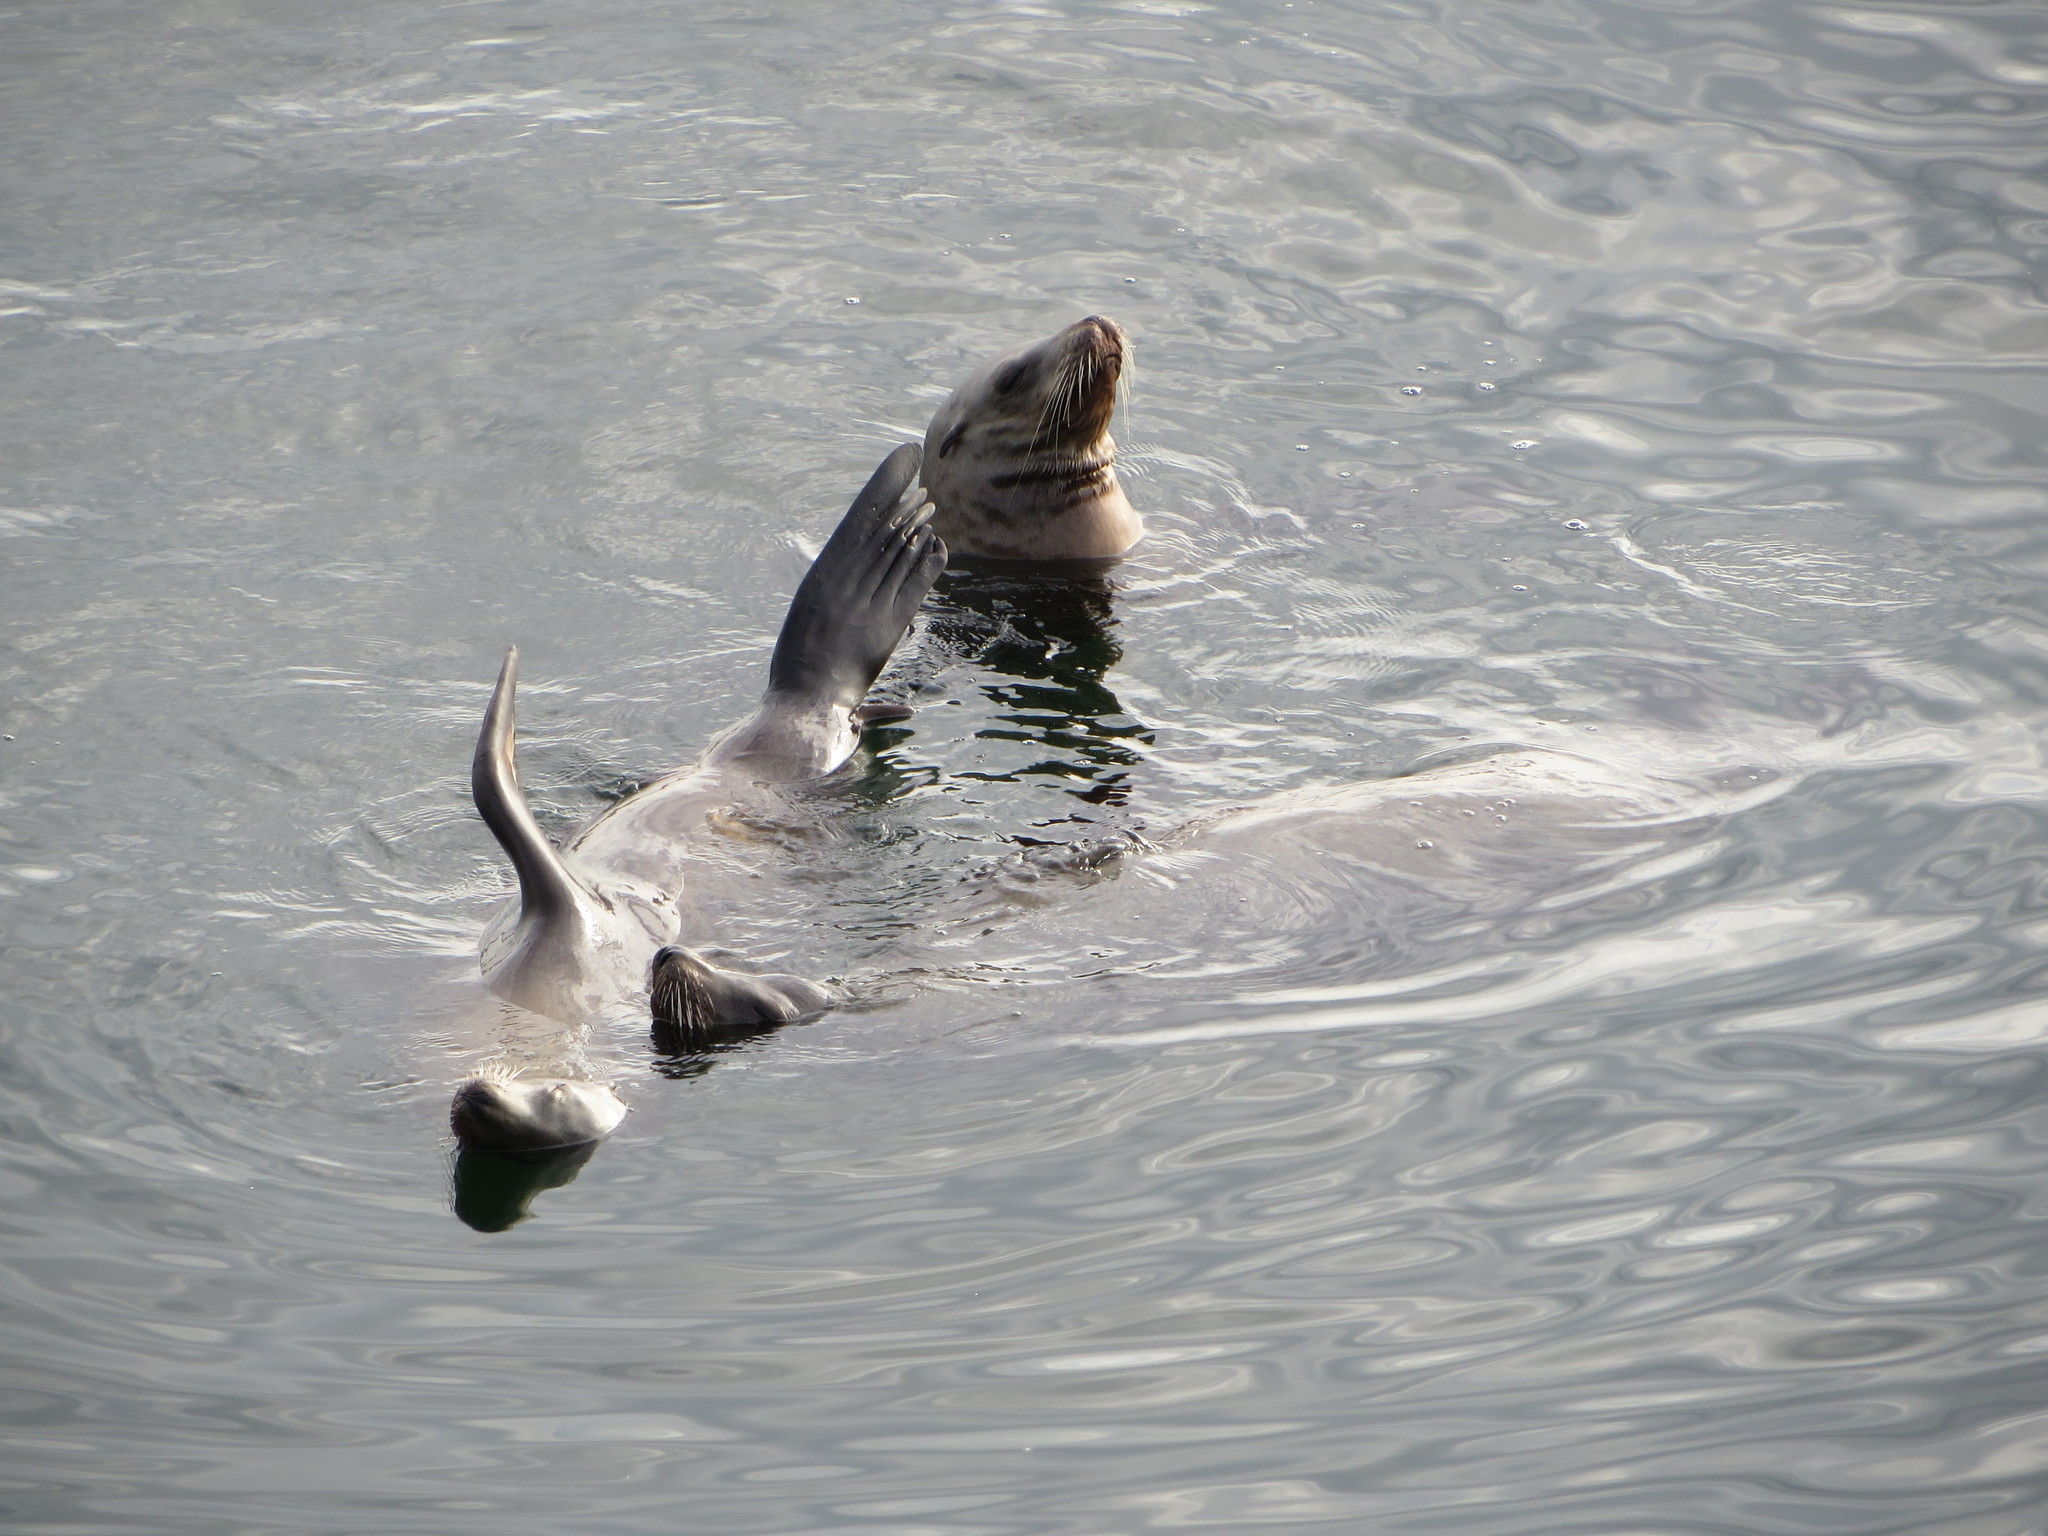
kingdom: Animalia
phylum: Chordata
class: Mammalia
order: Carnivora
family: Otariidae
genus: Zalophus
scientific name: Zalophus californianus
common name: California sea lion
